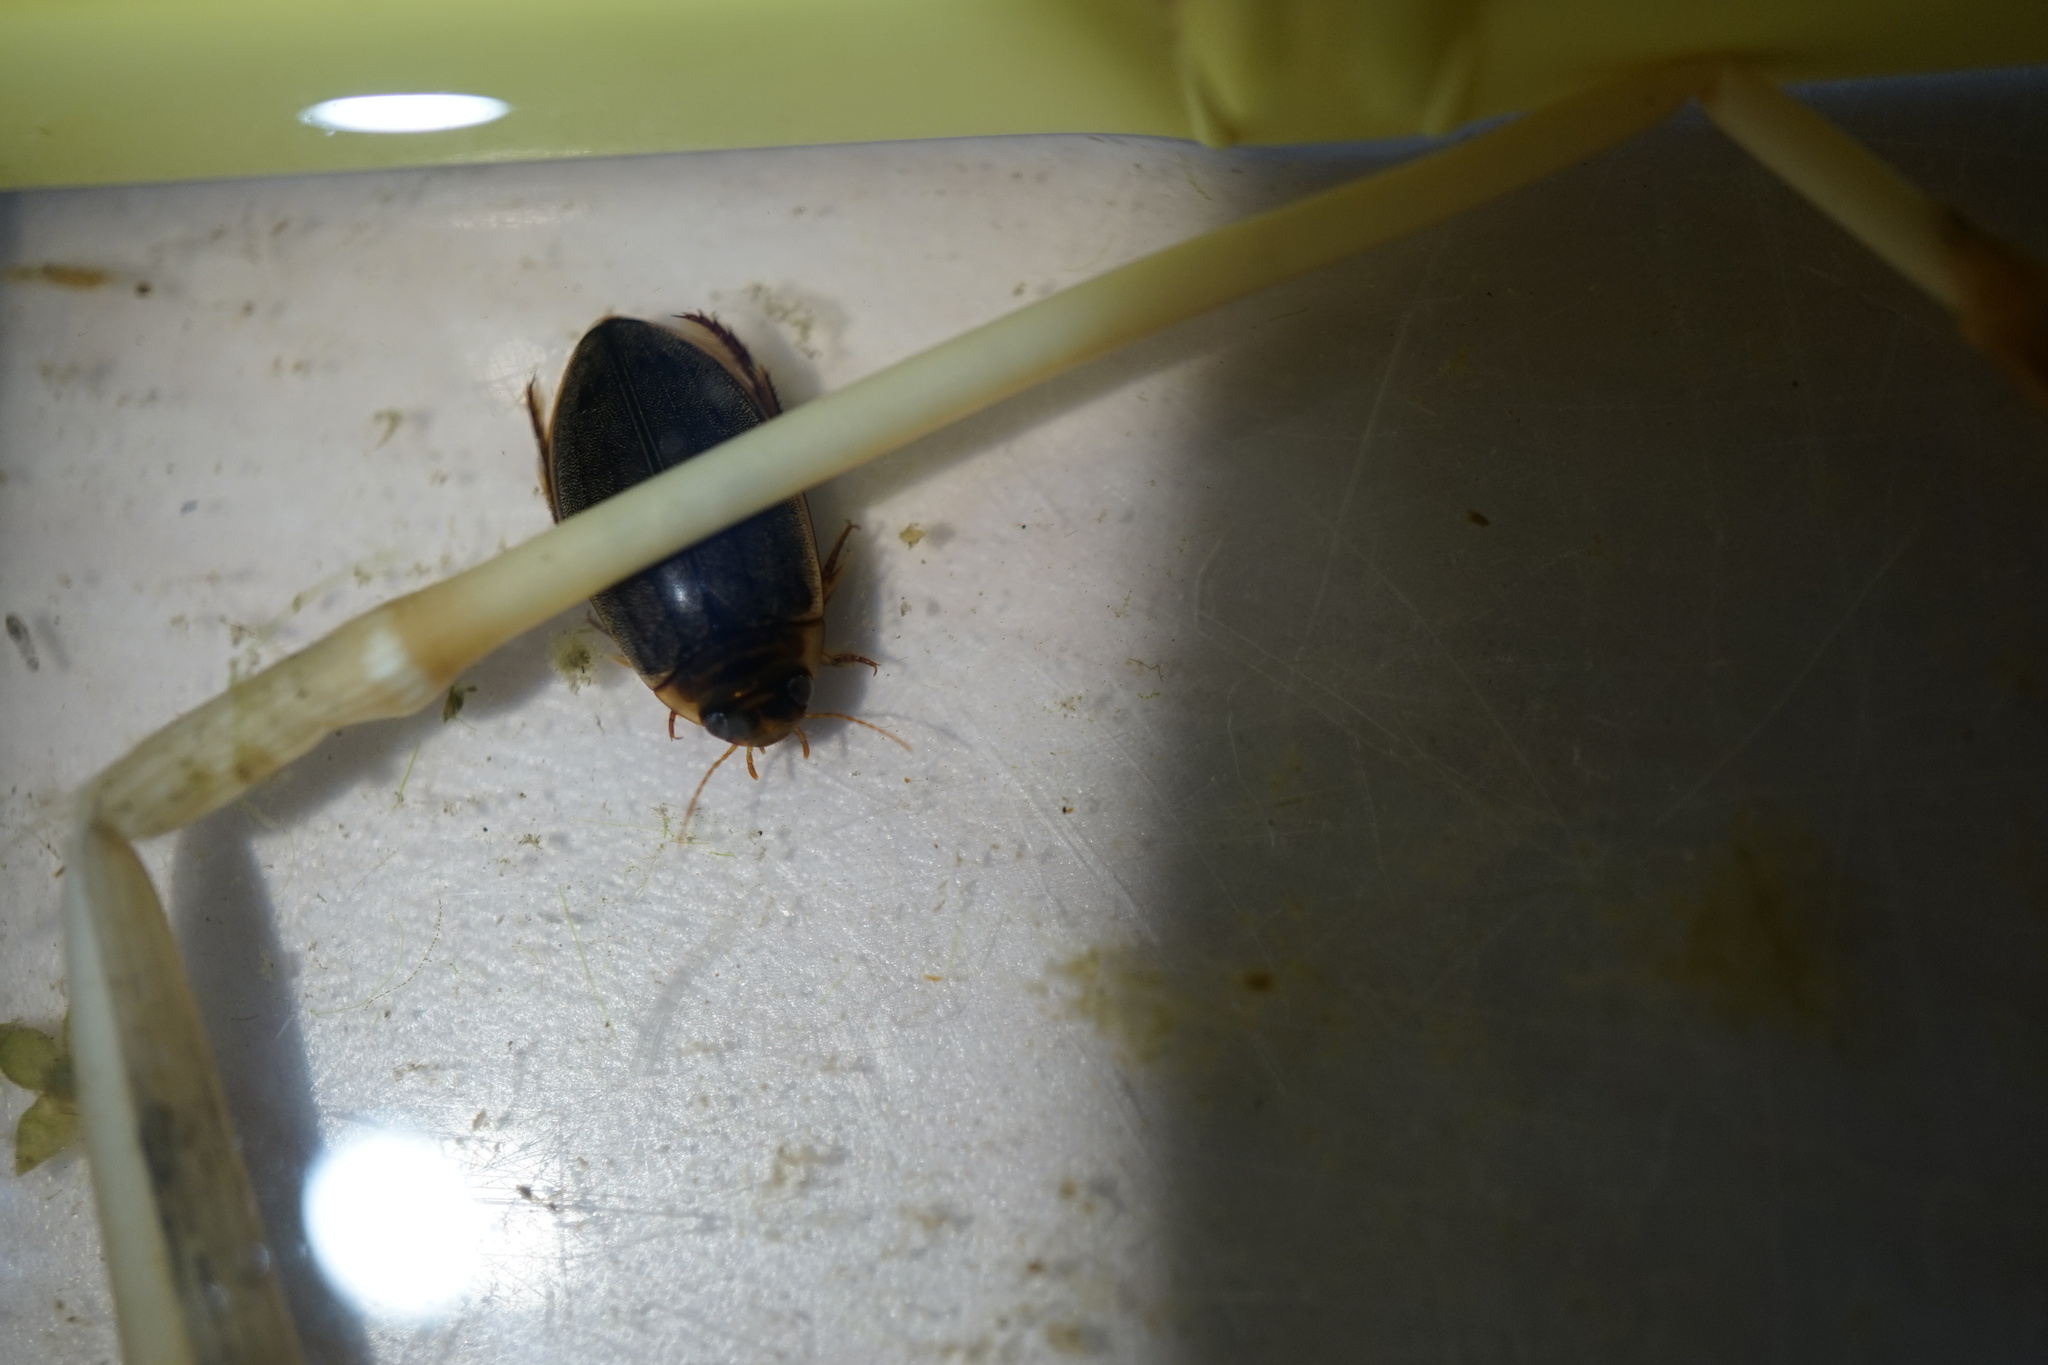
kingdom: Animalia
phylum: Arthropoda
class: Insecta
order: Coleoptera
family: Dytiscidae
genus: Rhantus
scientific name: Rhantus suturalis
